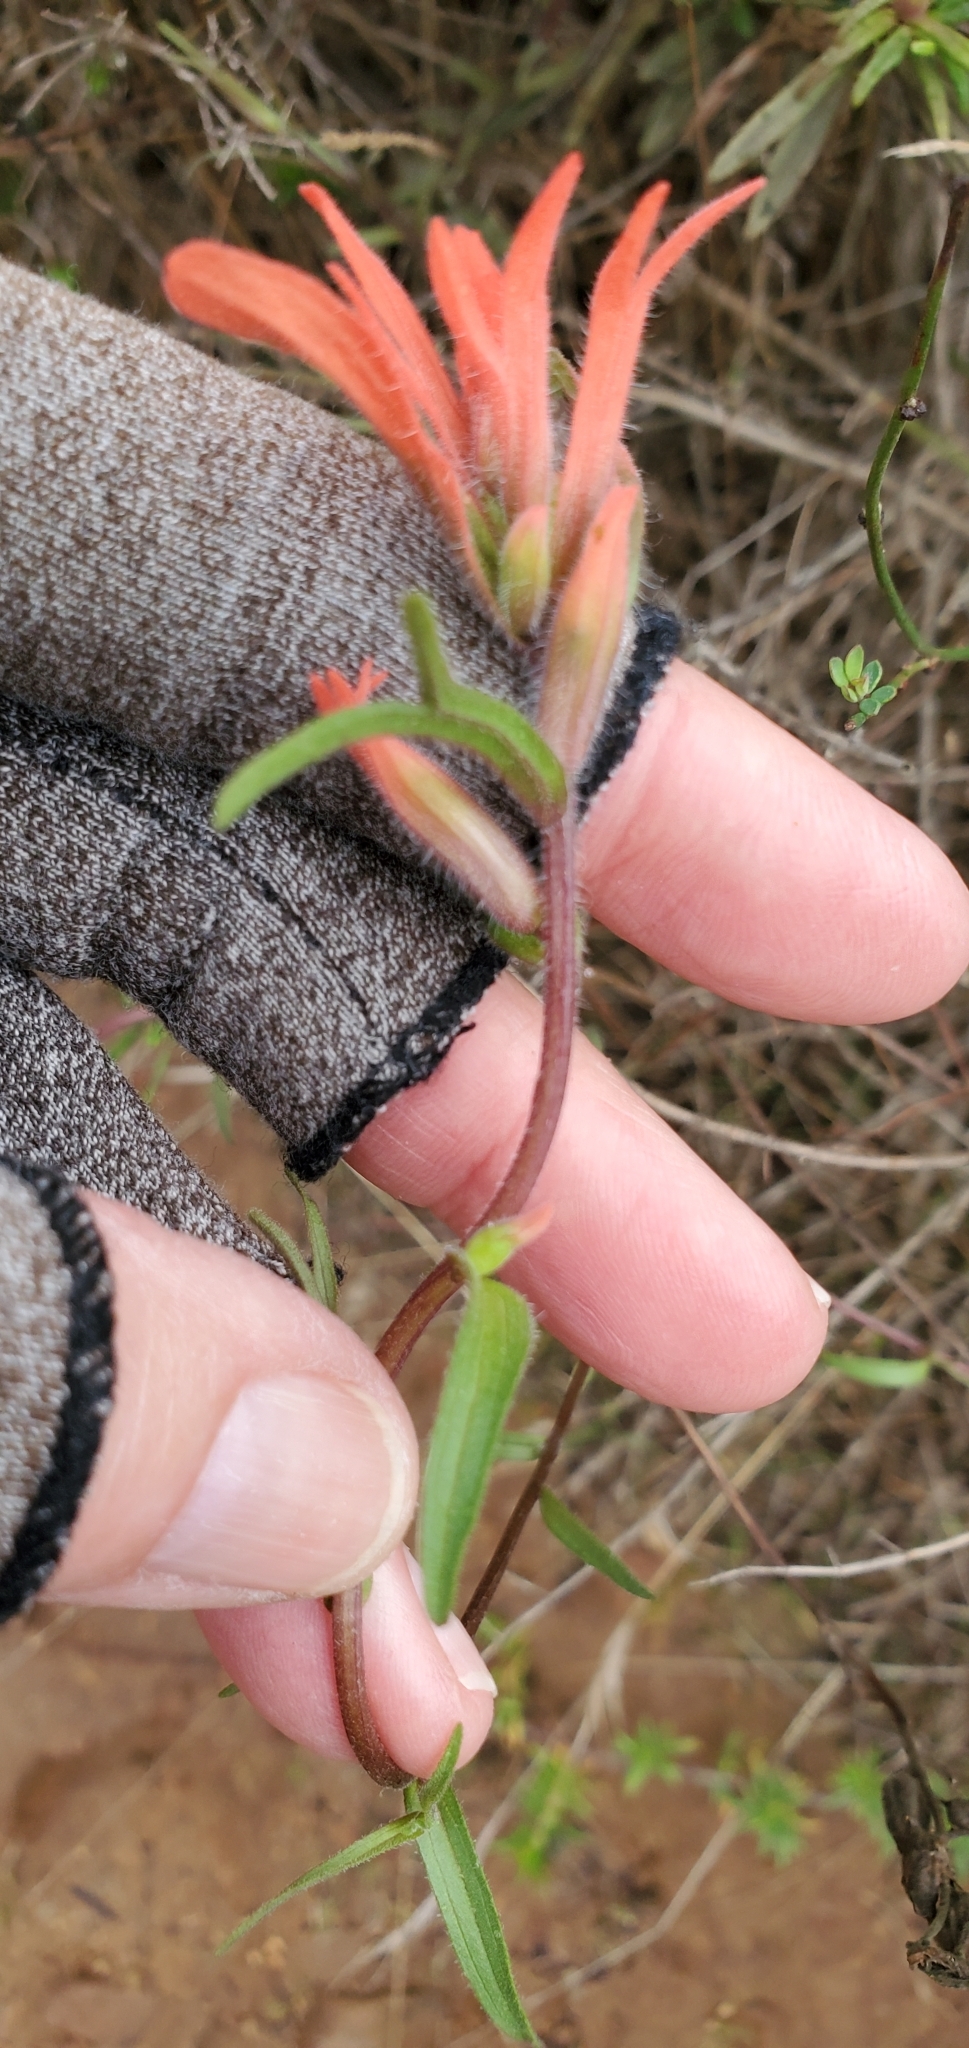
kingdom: Plantae
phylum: Tracheophyta
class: Magnoliopsida
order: Lamiales
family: Orobanchaceae
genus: Castilleja
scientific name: Castilleja affinis
